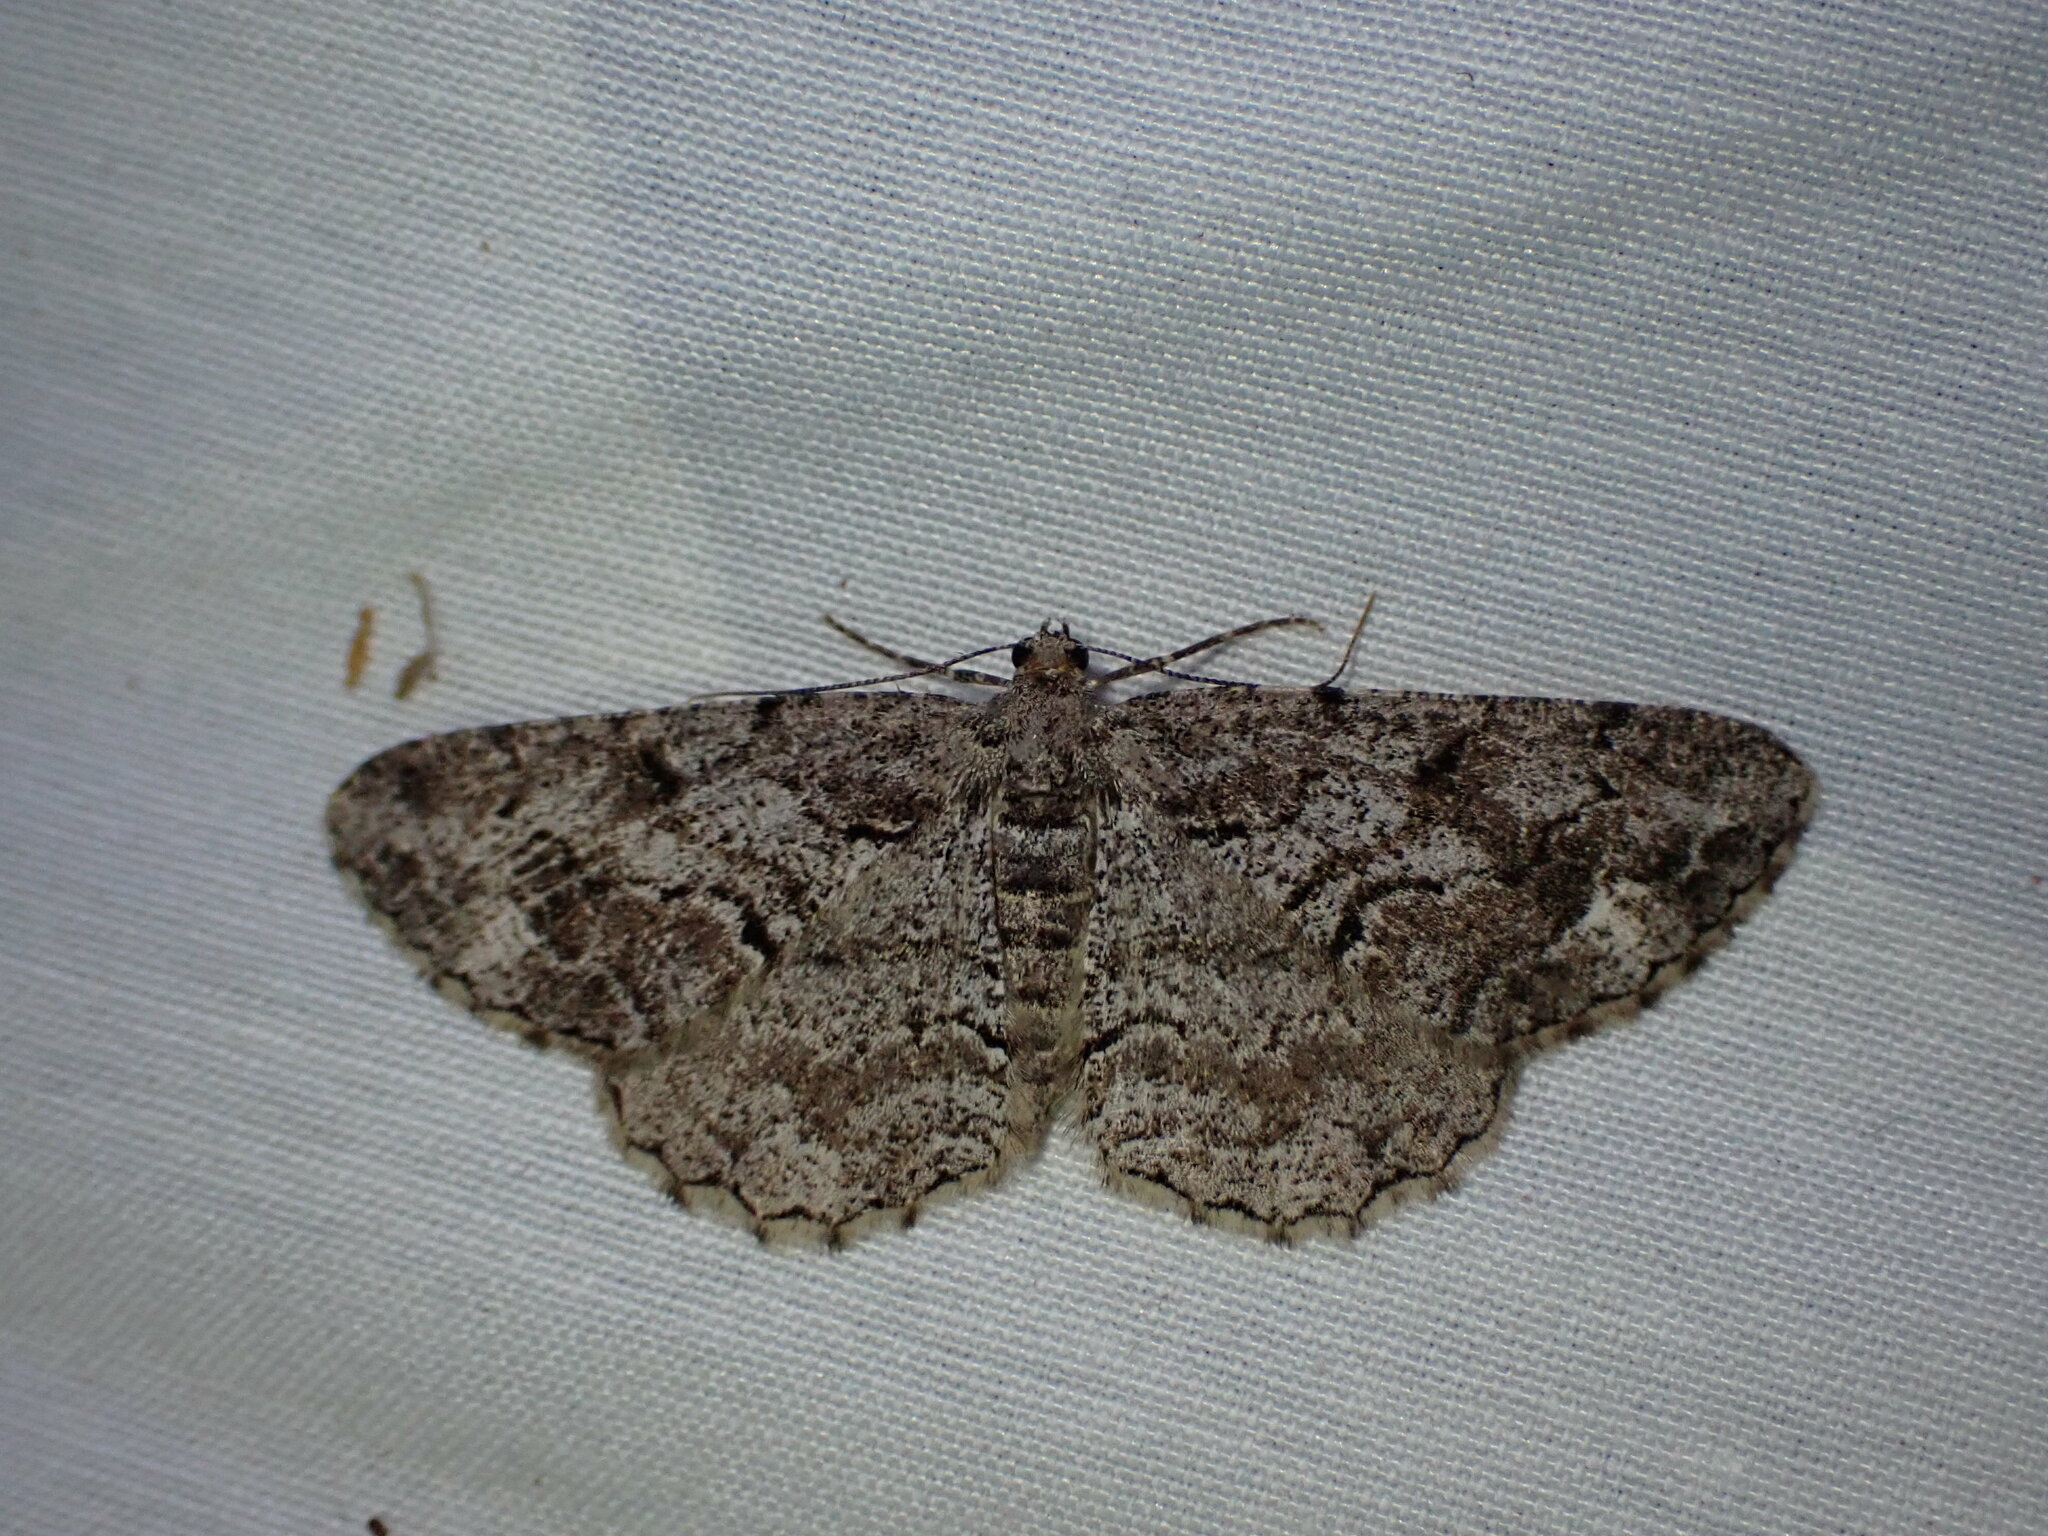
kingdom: Animalia
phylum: Arthropoda
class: Insecta
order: Lepidoptera
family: Geometridae
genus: Peribatodes
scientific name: Peribatodes secundaria
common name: Feathered beauty
